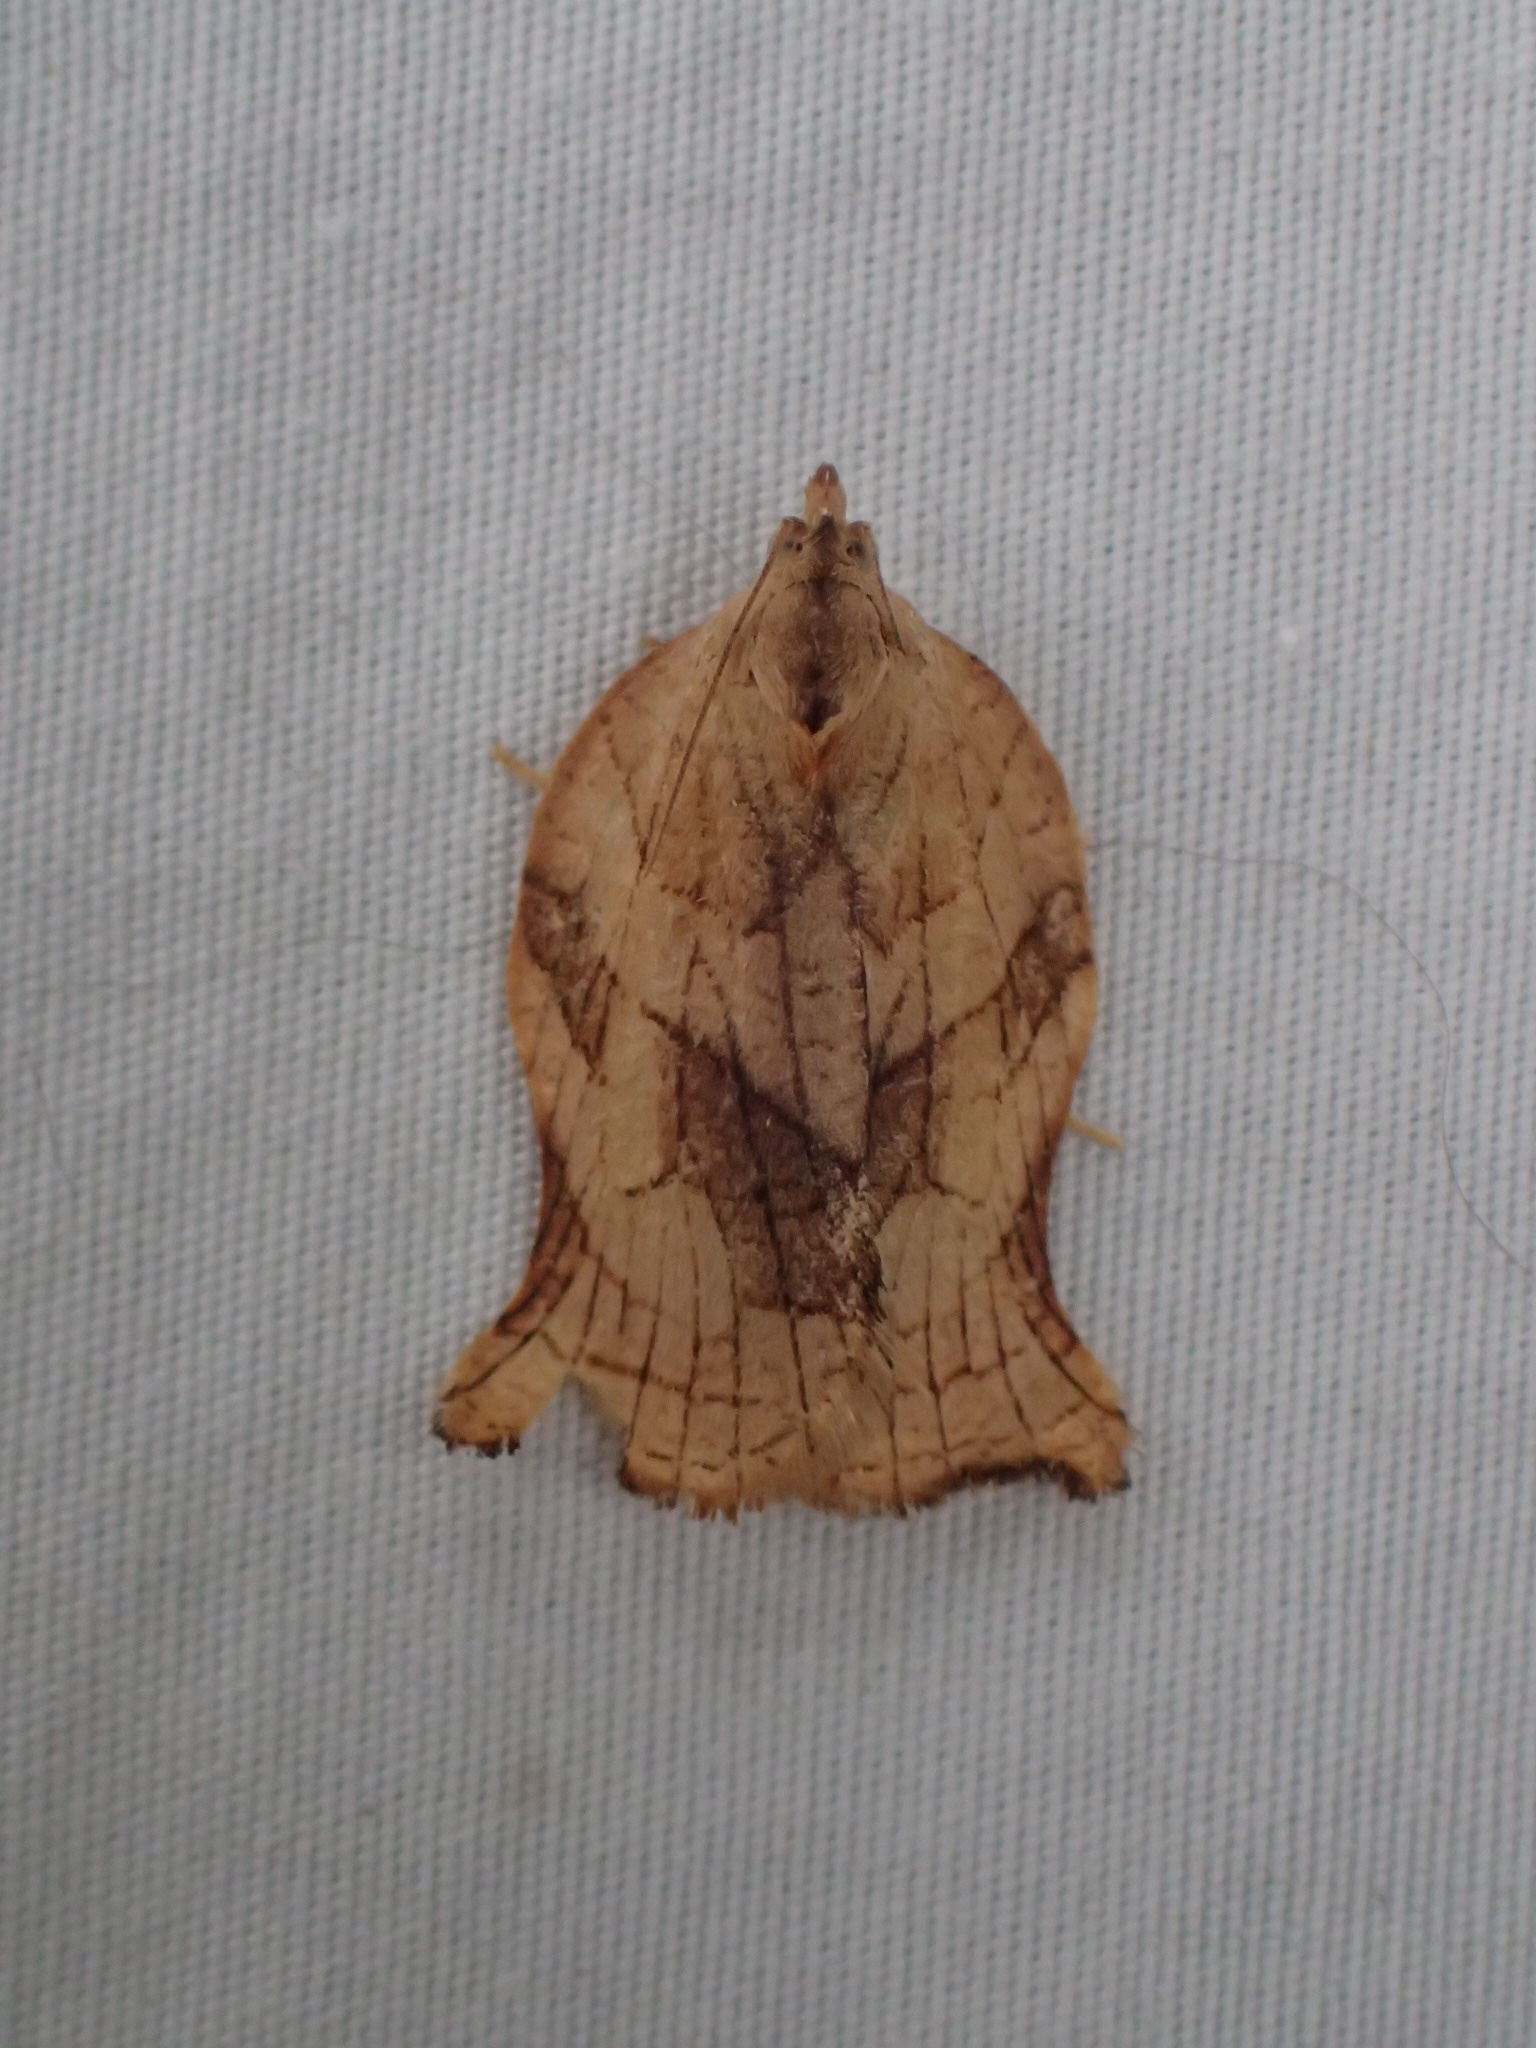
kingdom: Animalia
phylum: Arthropoda
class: Insecta
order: Lepidoptera
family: Tortricidae
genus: Archips
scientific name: Archips purpurana
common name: Omnivorous leafroller
